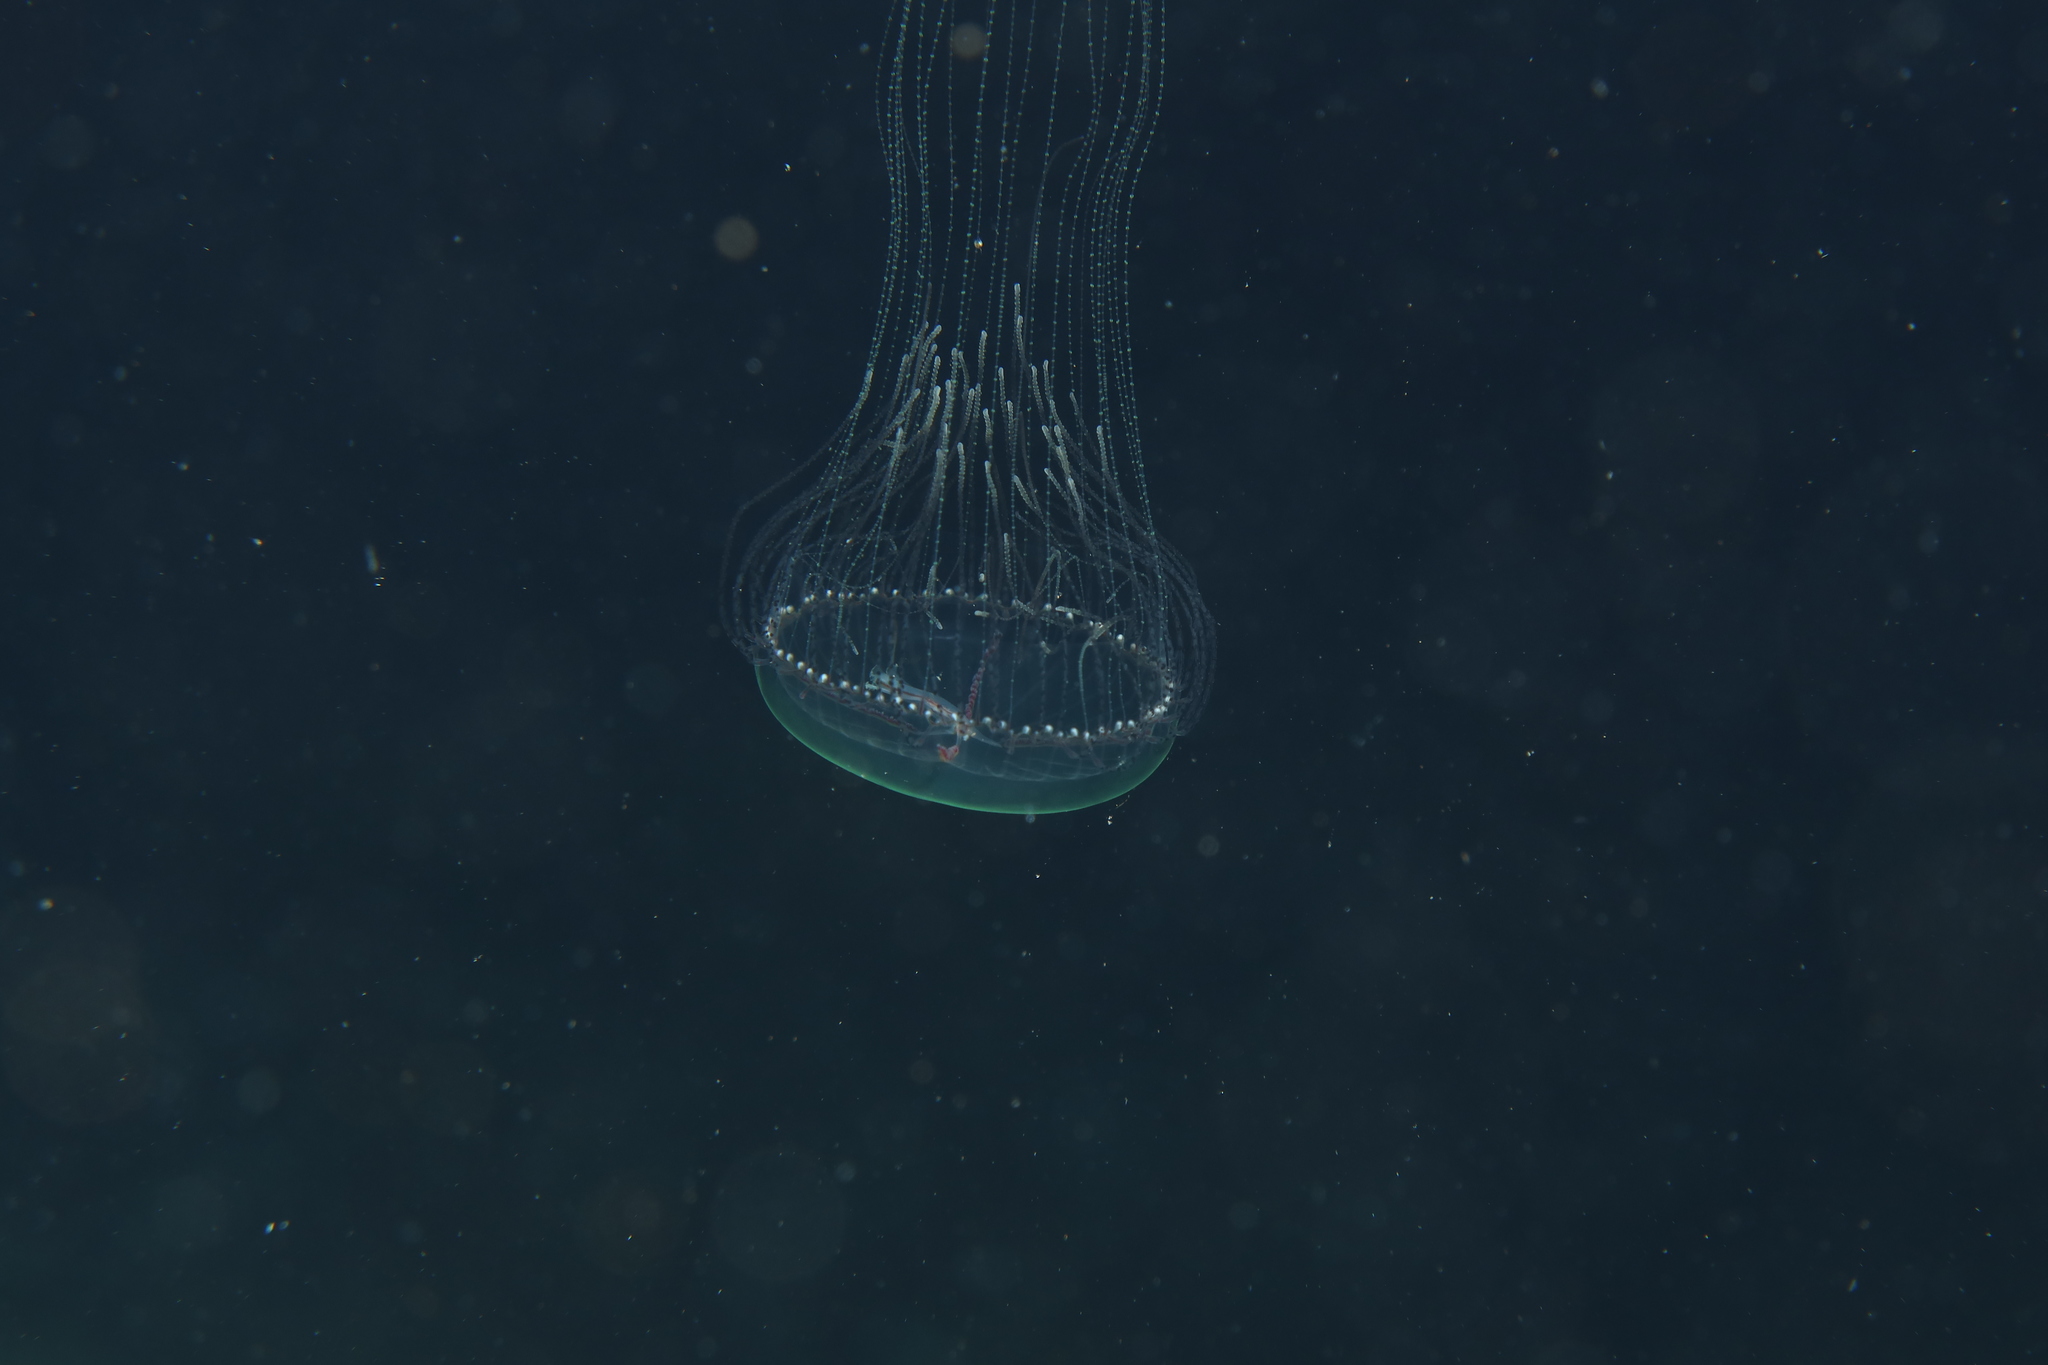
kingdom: Animalia
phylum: Cnidaria
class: Hydrozoa
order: Limnomedusae
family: Olindiidae
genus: Olindias
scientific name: Olindias muelleri
